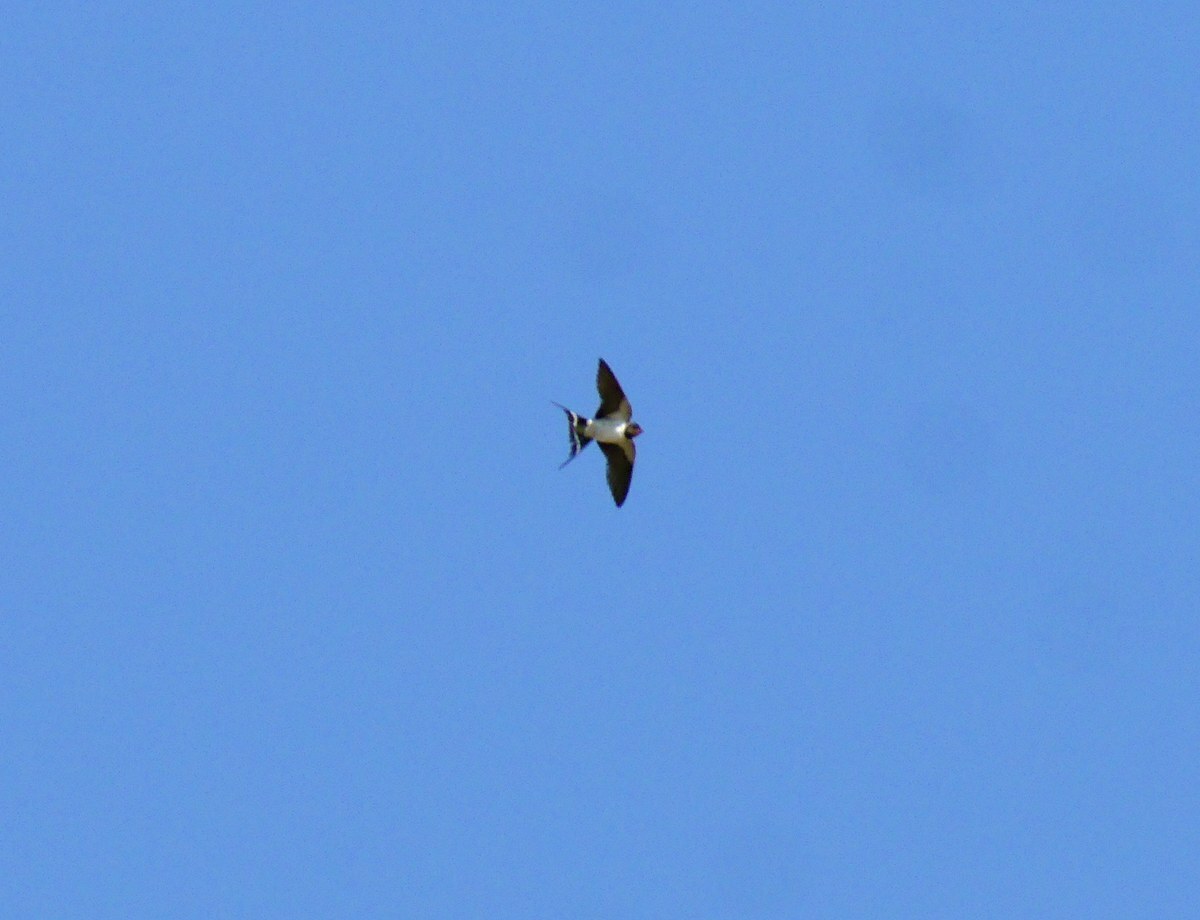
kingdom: Animalia
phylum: Chordata
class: Aves
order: Passeriformes
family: Hirundinidae
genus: Hirundo
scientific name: Hirundo rustica
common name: Barn swallow
